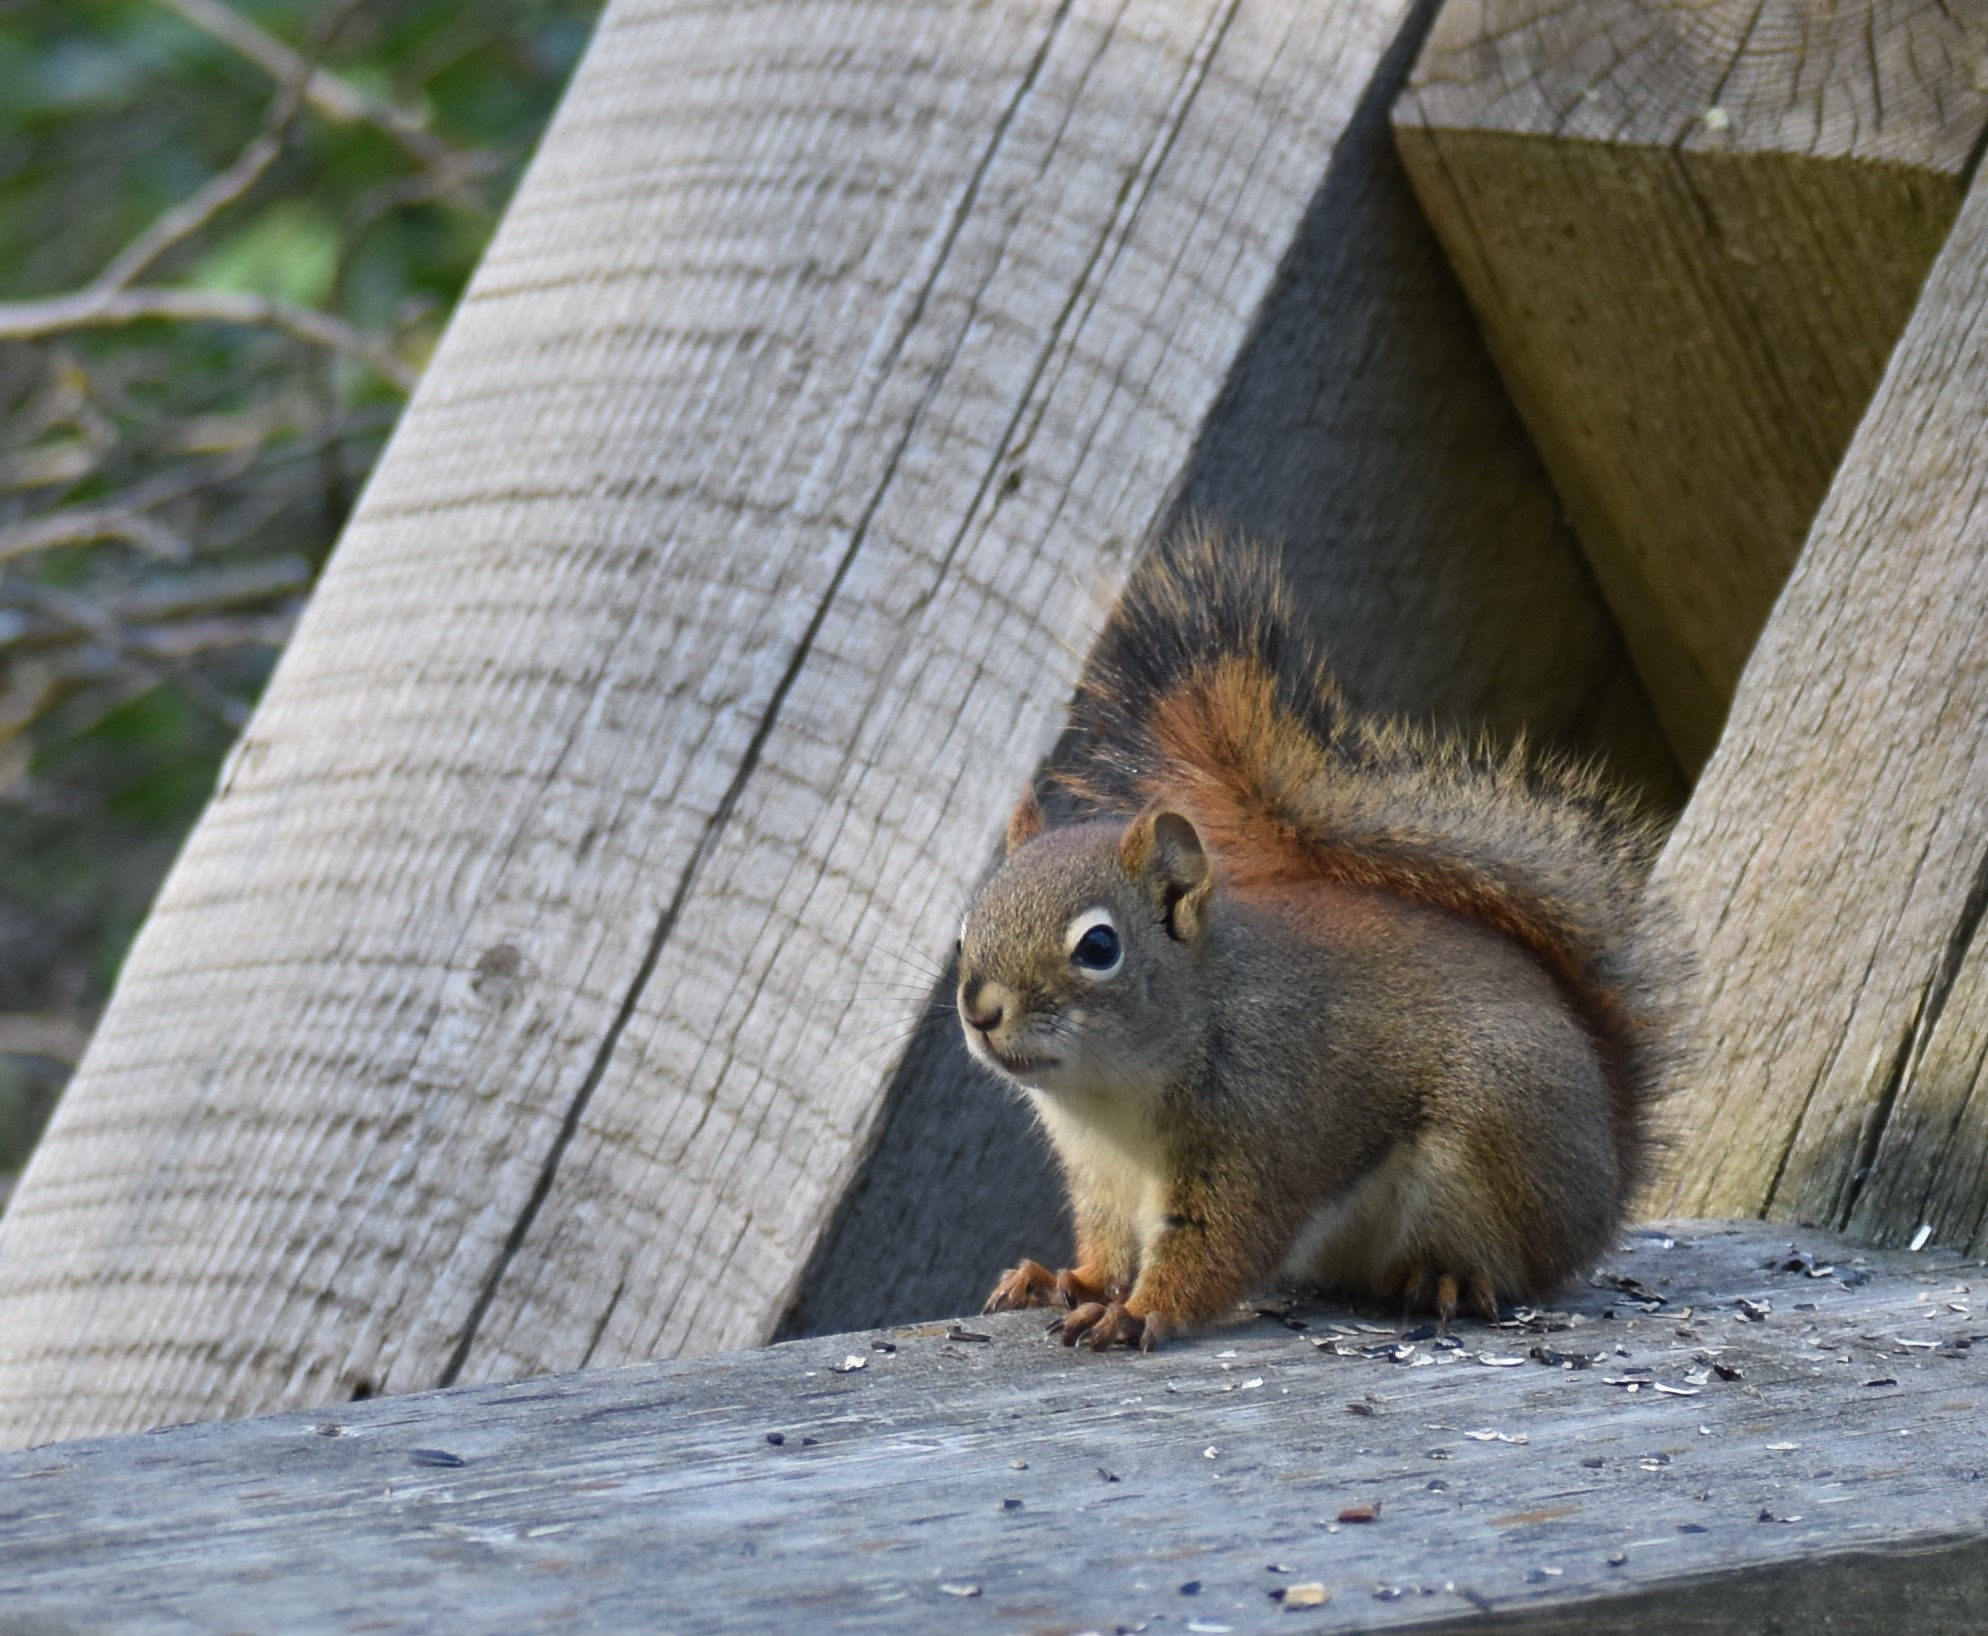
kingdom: Animalia
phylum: Chordata
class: Mammalia
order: Rodentia
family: Sciuridae
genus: Tamiasciurus
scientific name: Tamiasciurus hudsonicus
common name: Red squirrel
